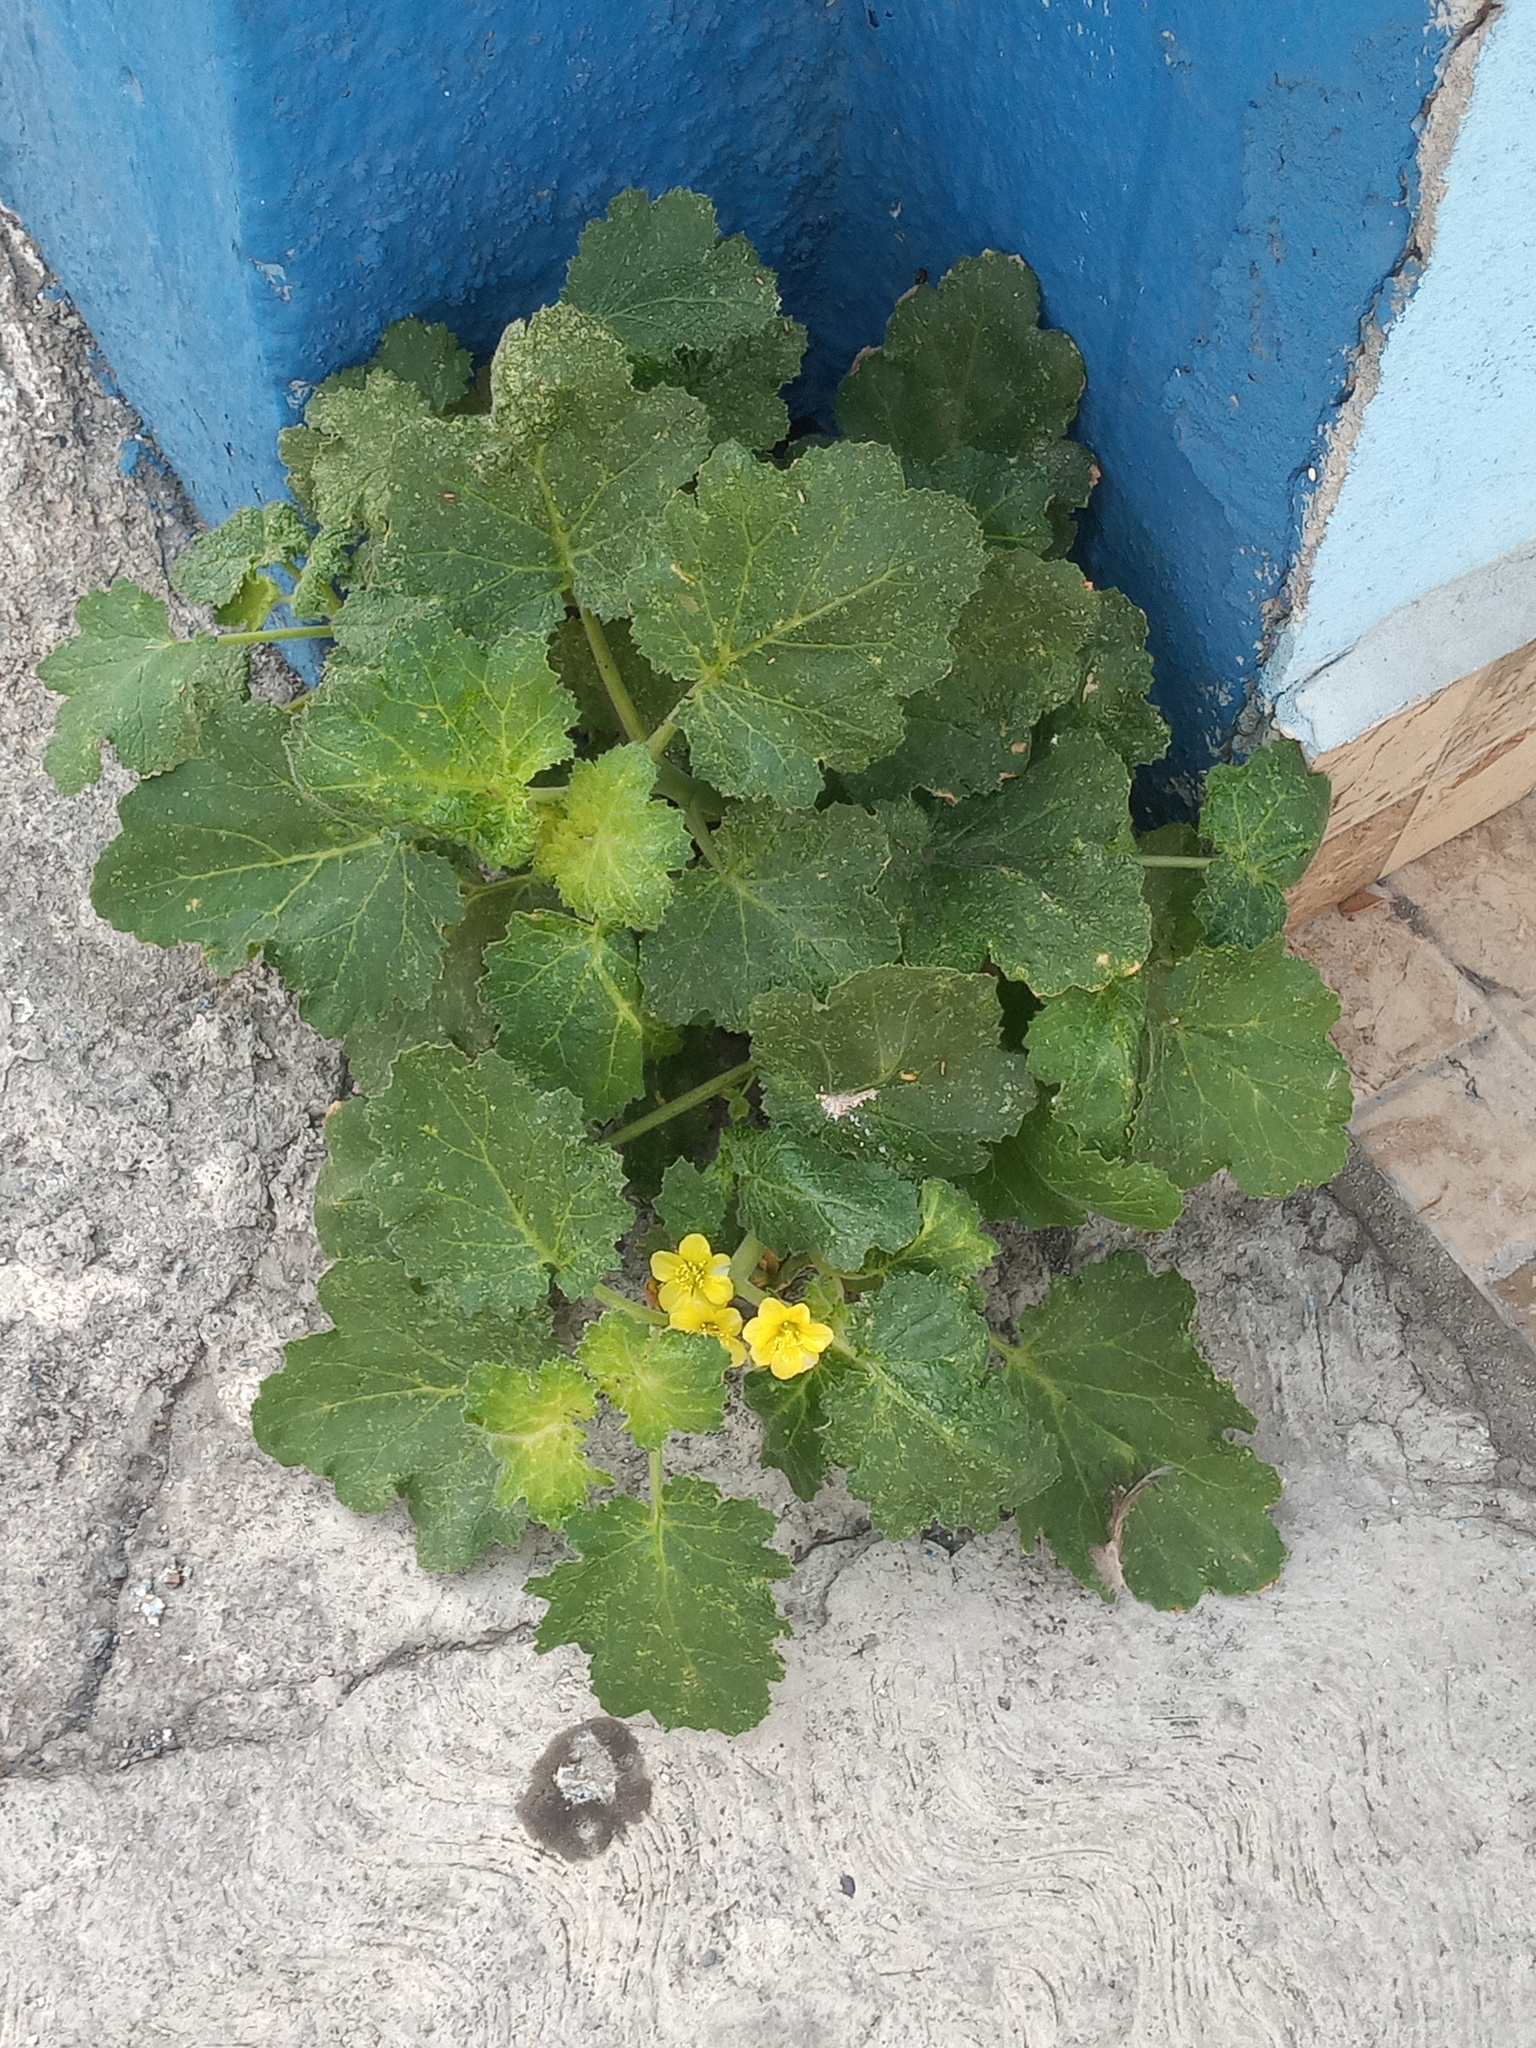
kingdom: Plantae
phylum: Tracheophyta
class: Magnoliopsida
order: Cornales
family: Loasaceae
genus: Eucnide
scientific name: Eucnide lobata
